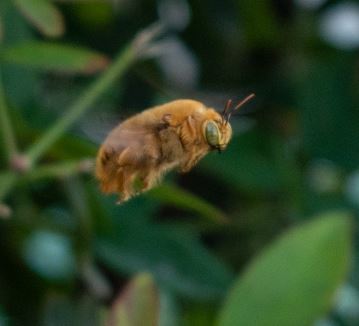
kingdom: Animalia
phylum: Arthropoda
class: Insecta
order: Hymenoptera
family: Apidae
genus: Xylocopa
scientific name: Xylocopa sonorina
